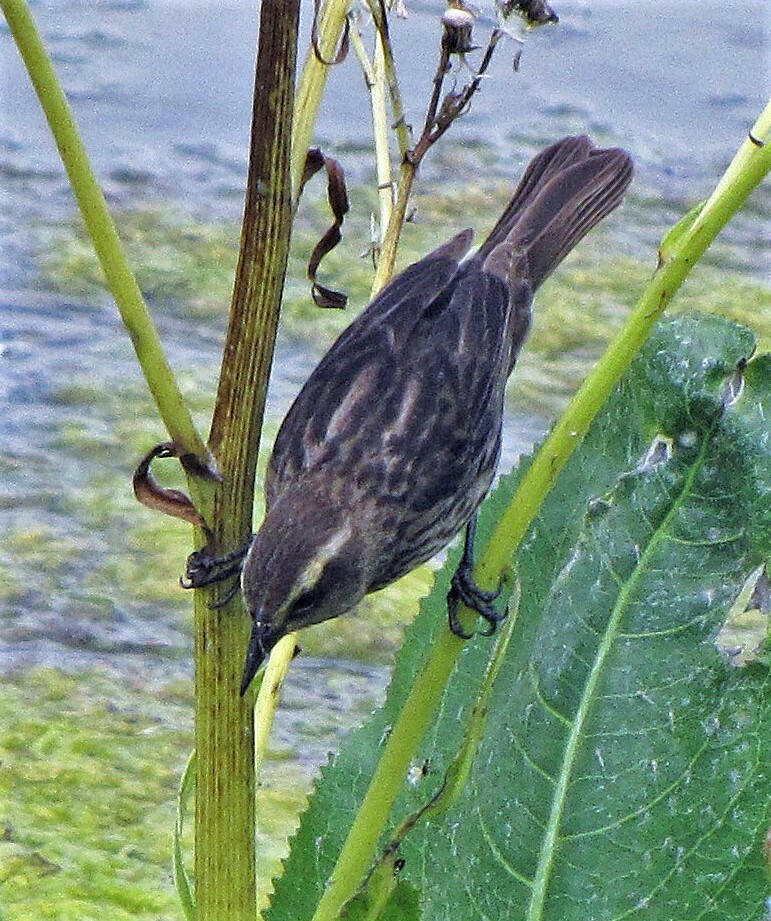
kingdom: Animalia
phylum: Chordata
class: Aves
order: Passeriformes
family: Icteridae
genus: Agelasticus
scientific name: Agelasticus thilius
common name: Yellow-winged blackbird
